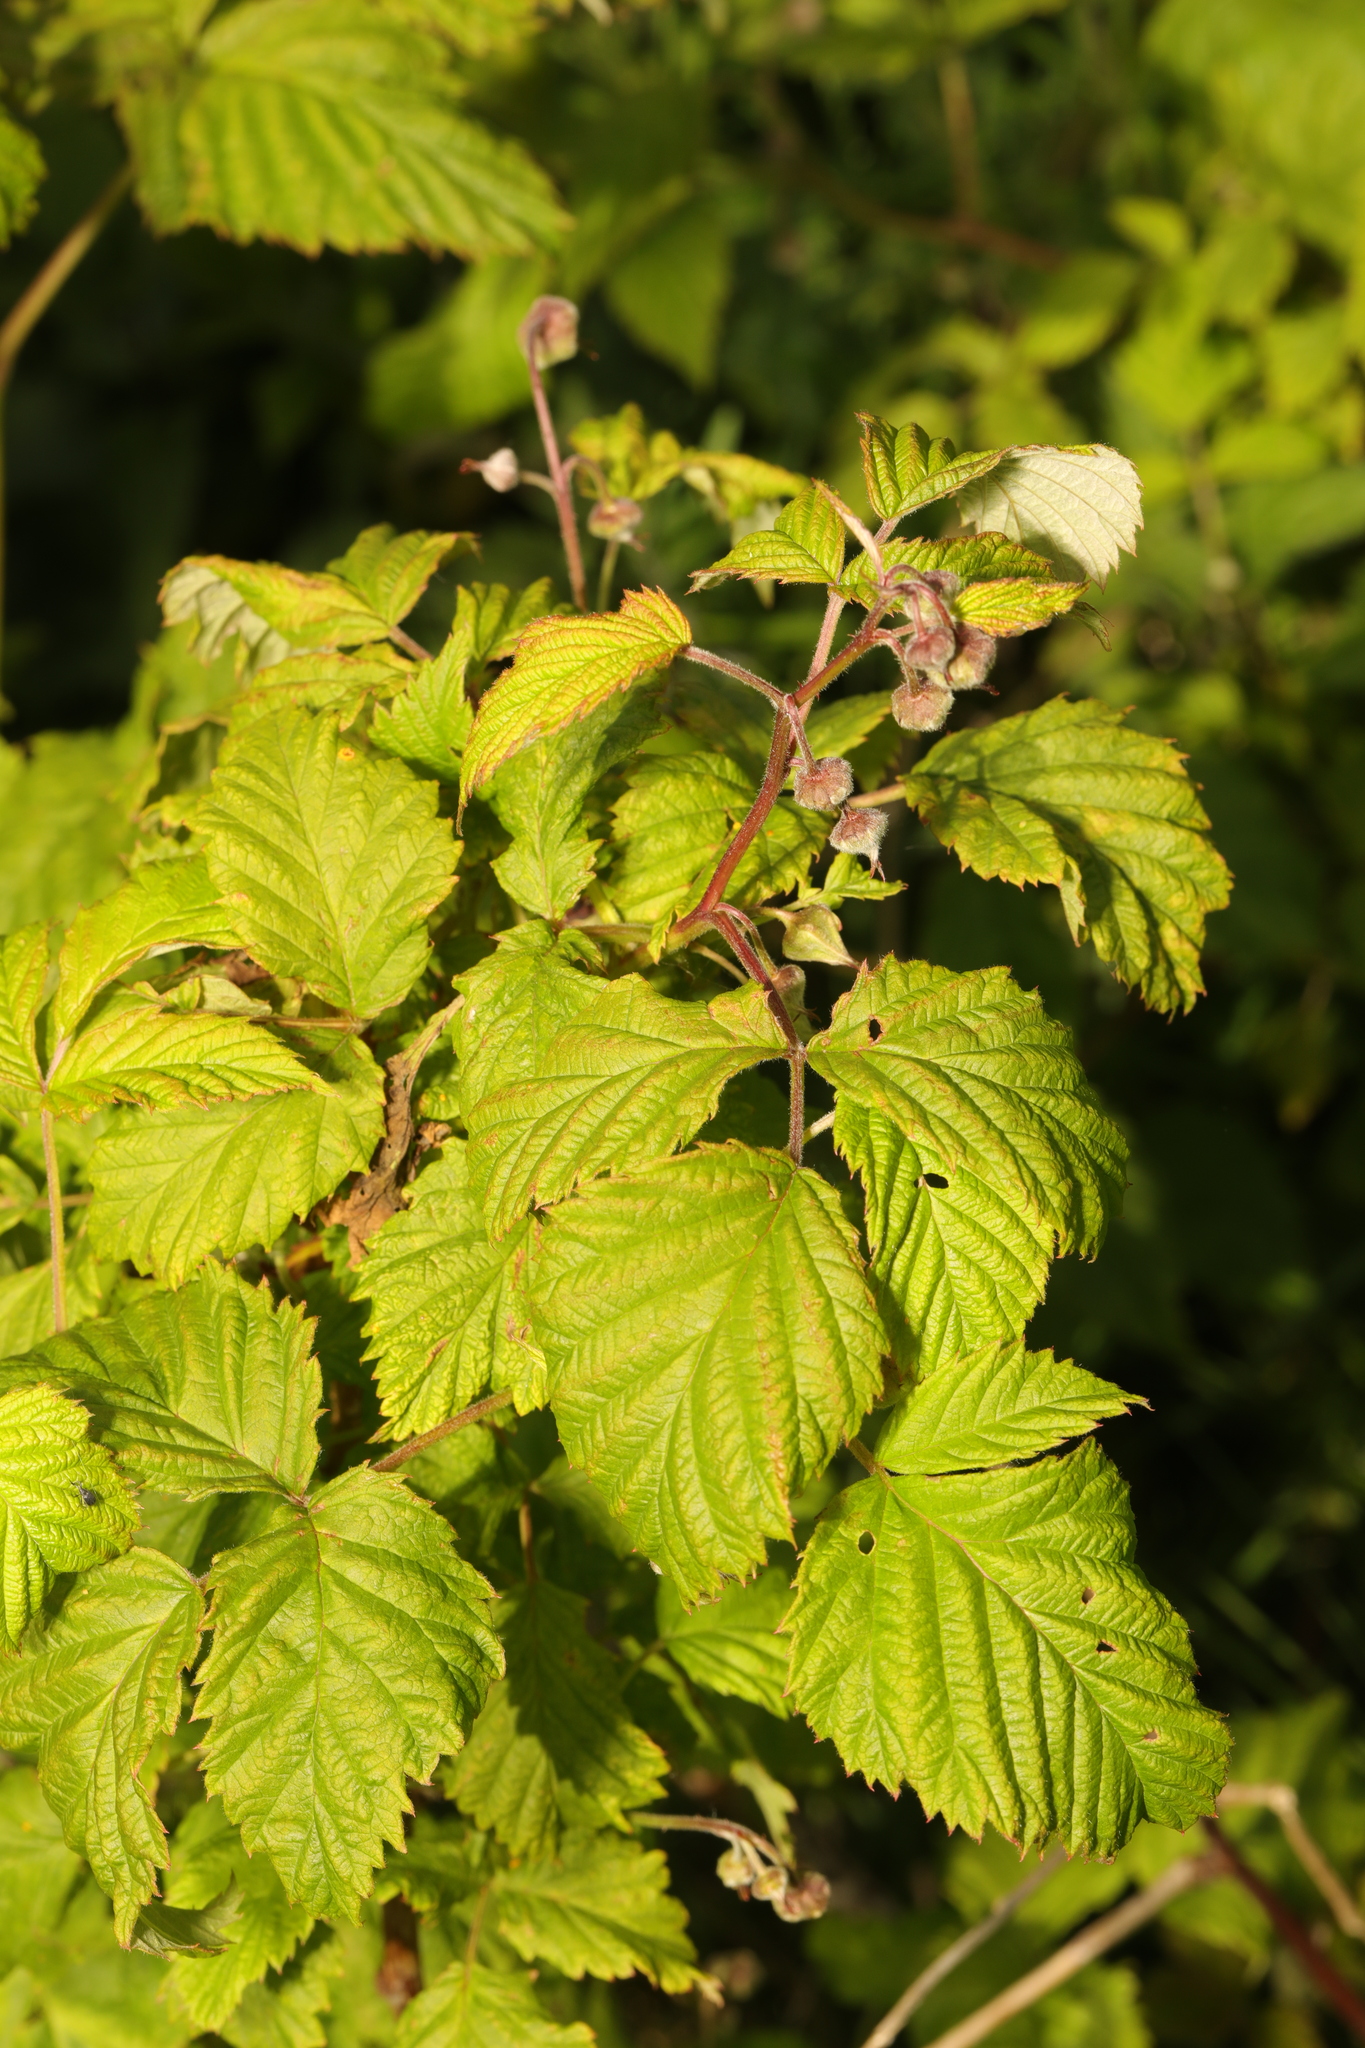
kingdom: Plantae
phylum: Tracheophyta
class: Magnoliopsida
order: Rosales
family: Rosaceae
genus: Rubus
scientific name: Rubus caesius
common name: Dewberry
